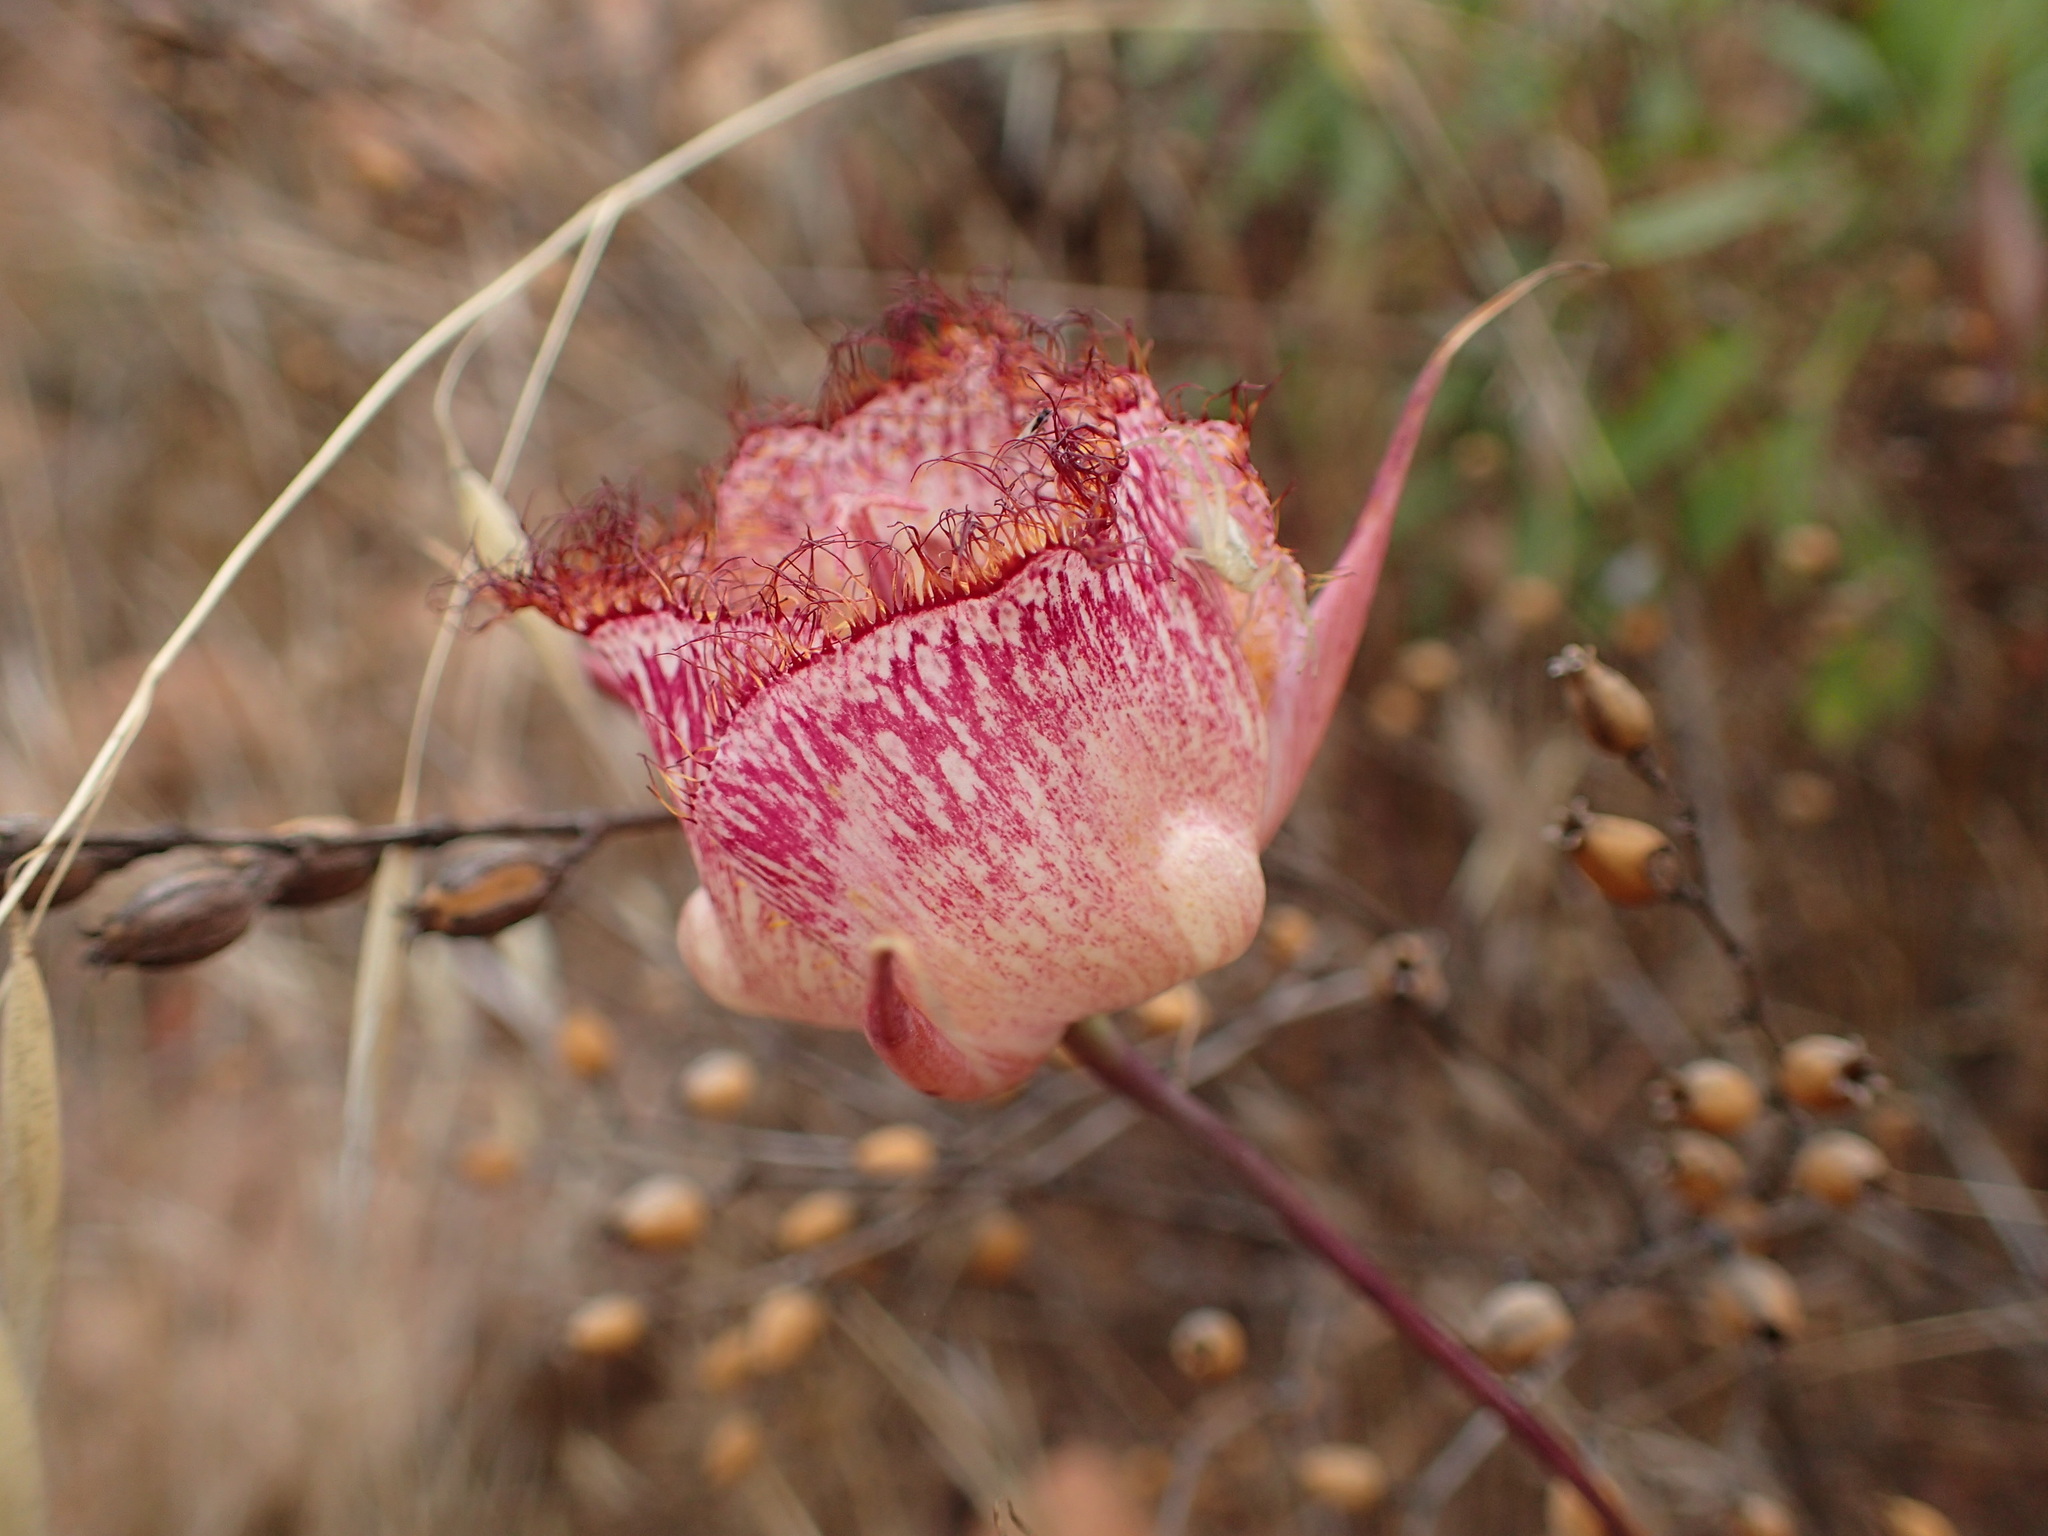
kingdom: Plantae
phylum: Tracheophyta
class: Liliopsida
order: Liliales
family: Liliaceae
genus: Calochortus
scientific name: Calochortus fimbriatus
